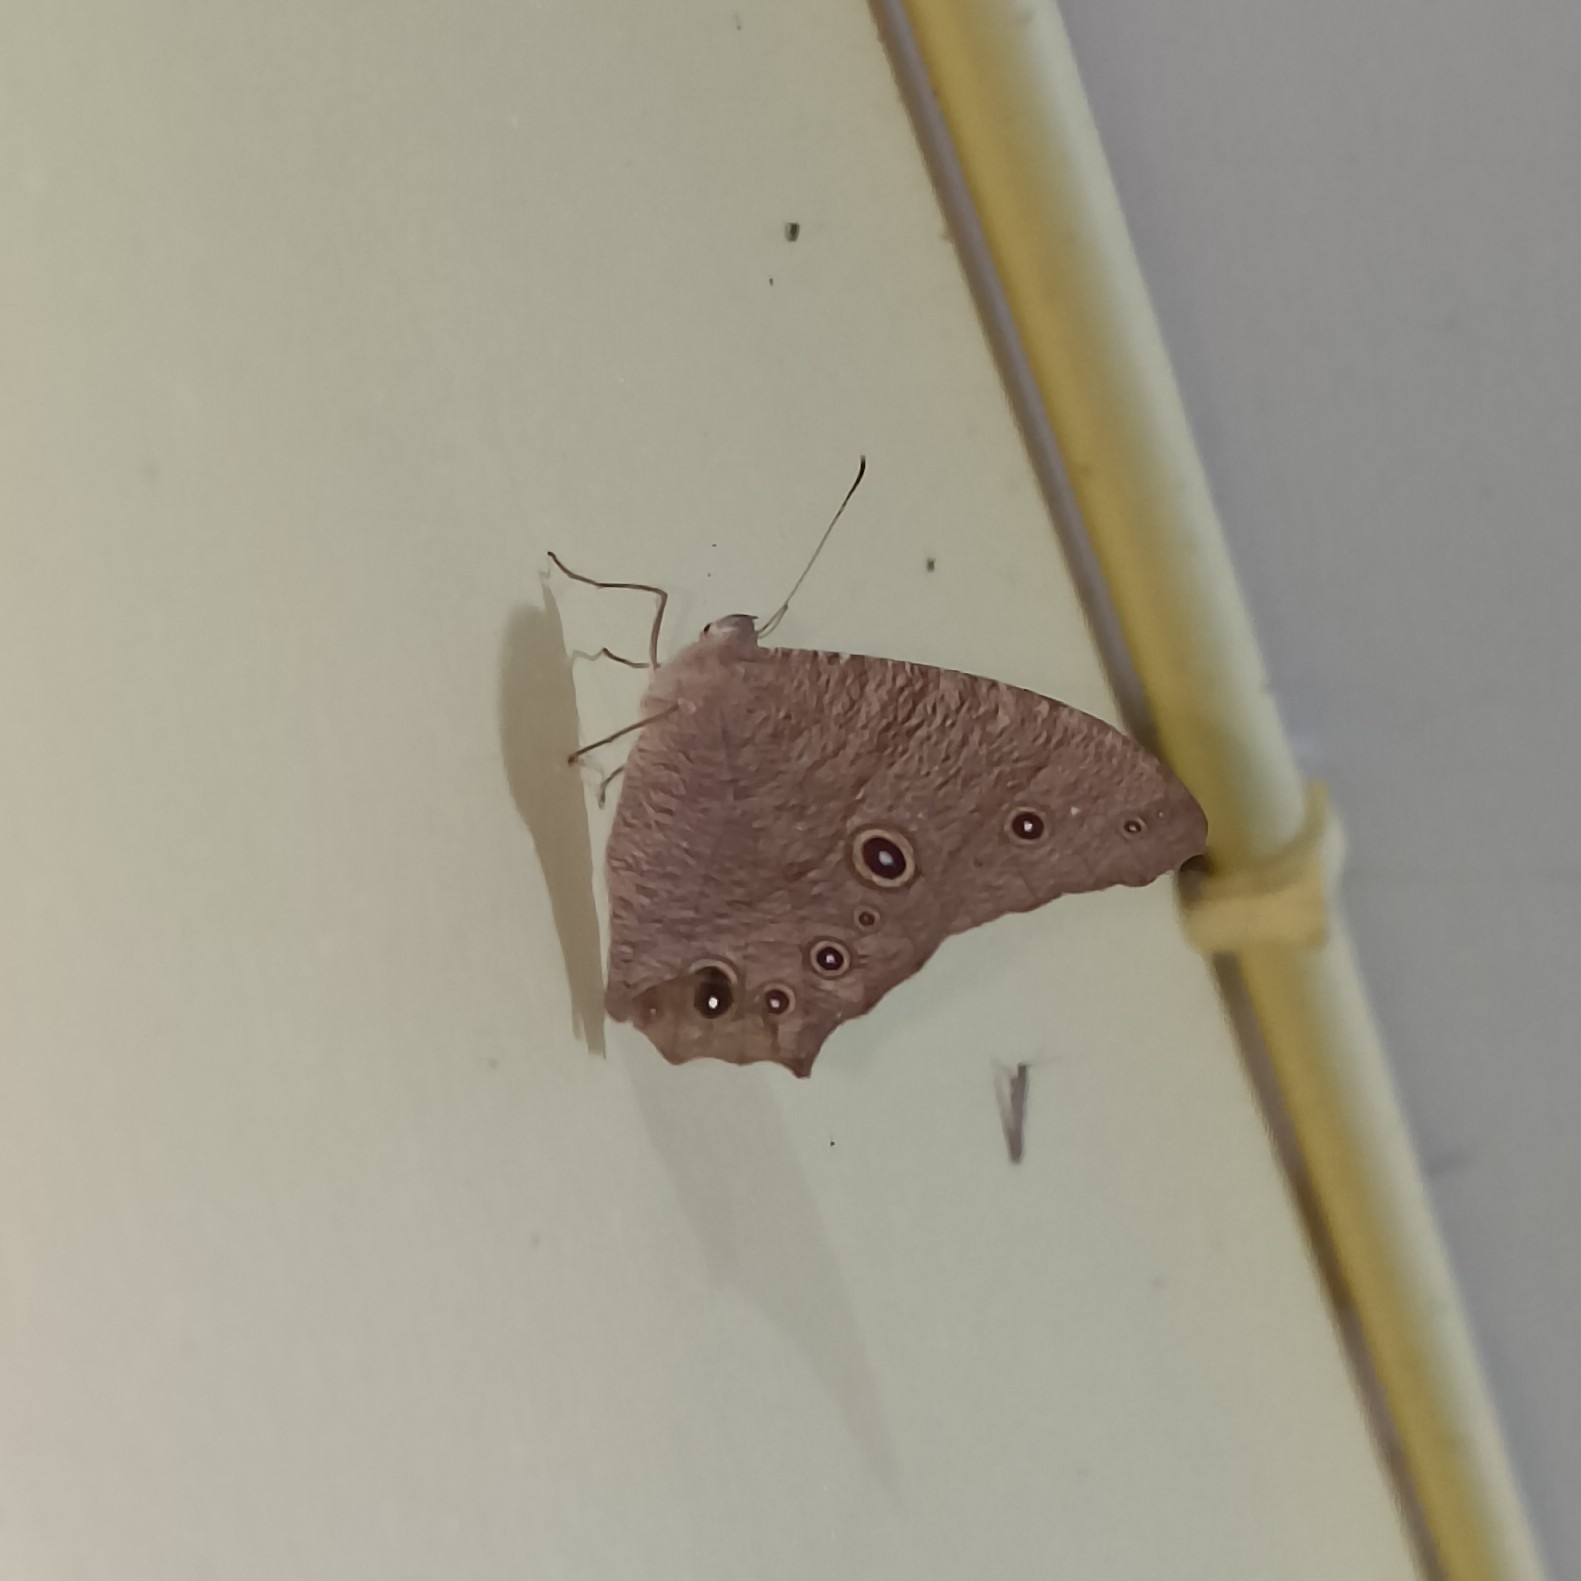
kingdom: Animalia
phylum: Arthropoda
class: Insecta
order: Lepidoptera
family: Nymphalidae
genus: Melanitis
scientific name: Melanitis leda
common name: Twilight brown
